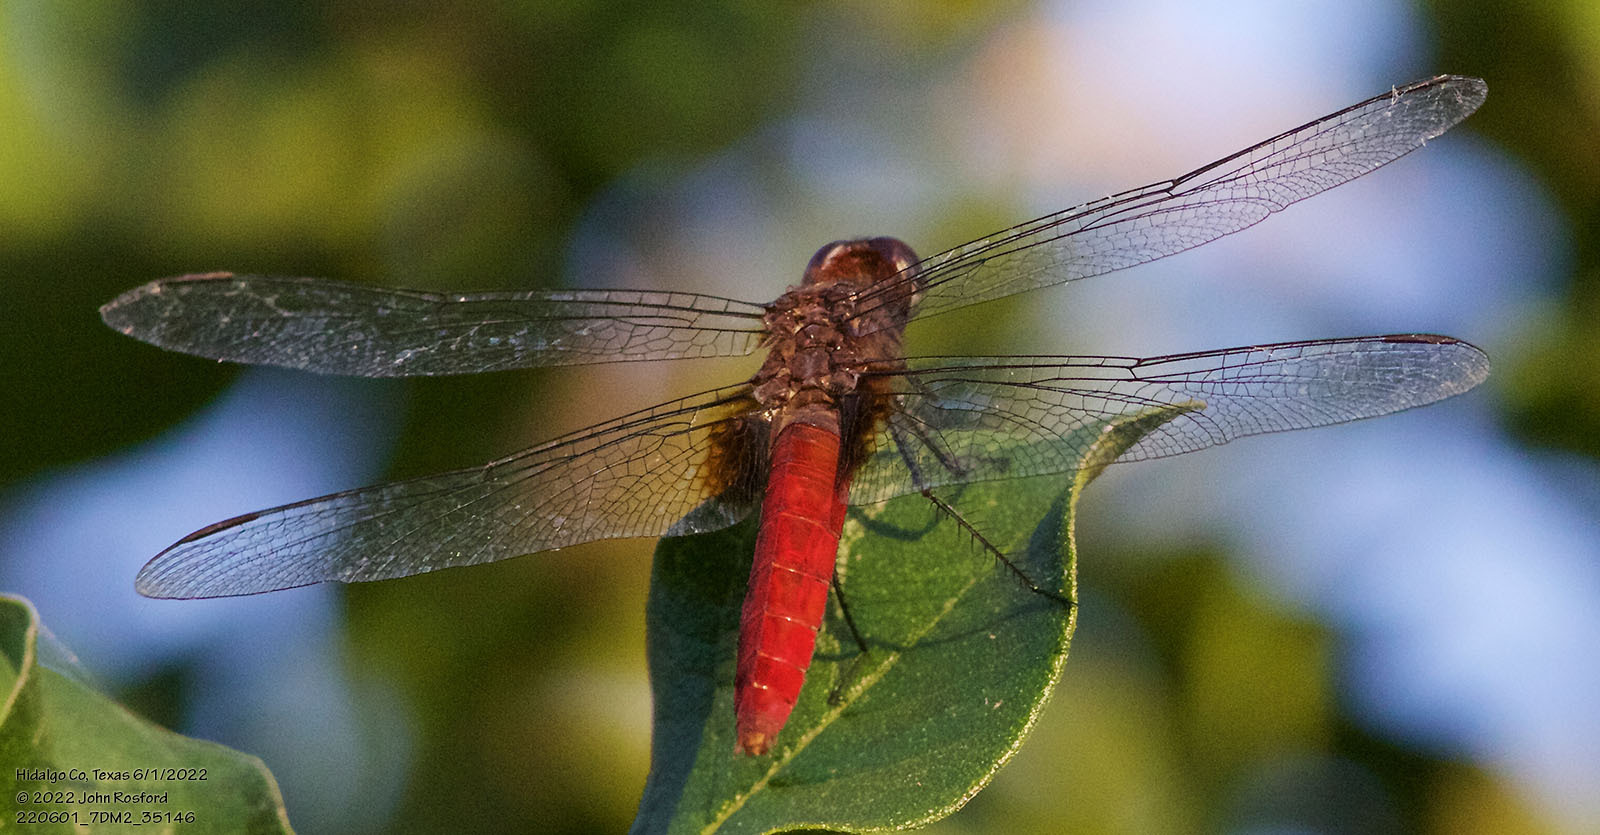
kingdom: Animalia
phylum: Arthropoda
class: Insecta
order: Odonata
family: Libellulidae
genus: Planiplax
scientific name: Planiplax sanguiniventris
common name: Mexican scarlet-tail
